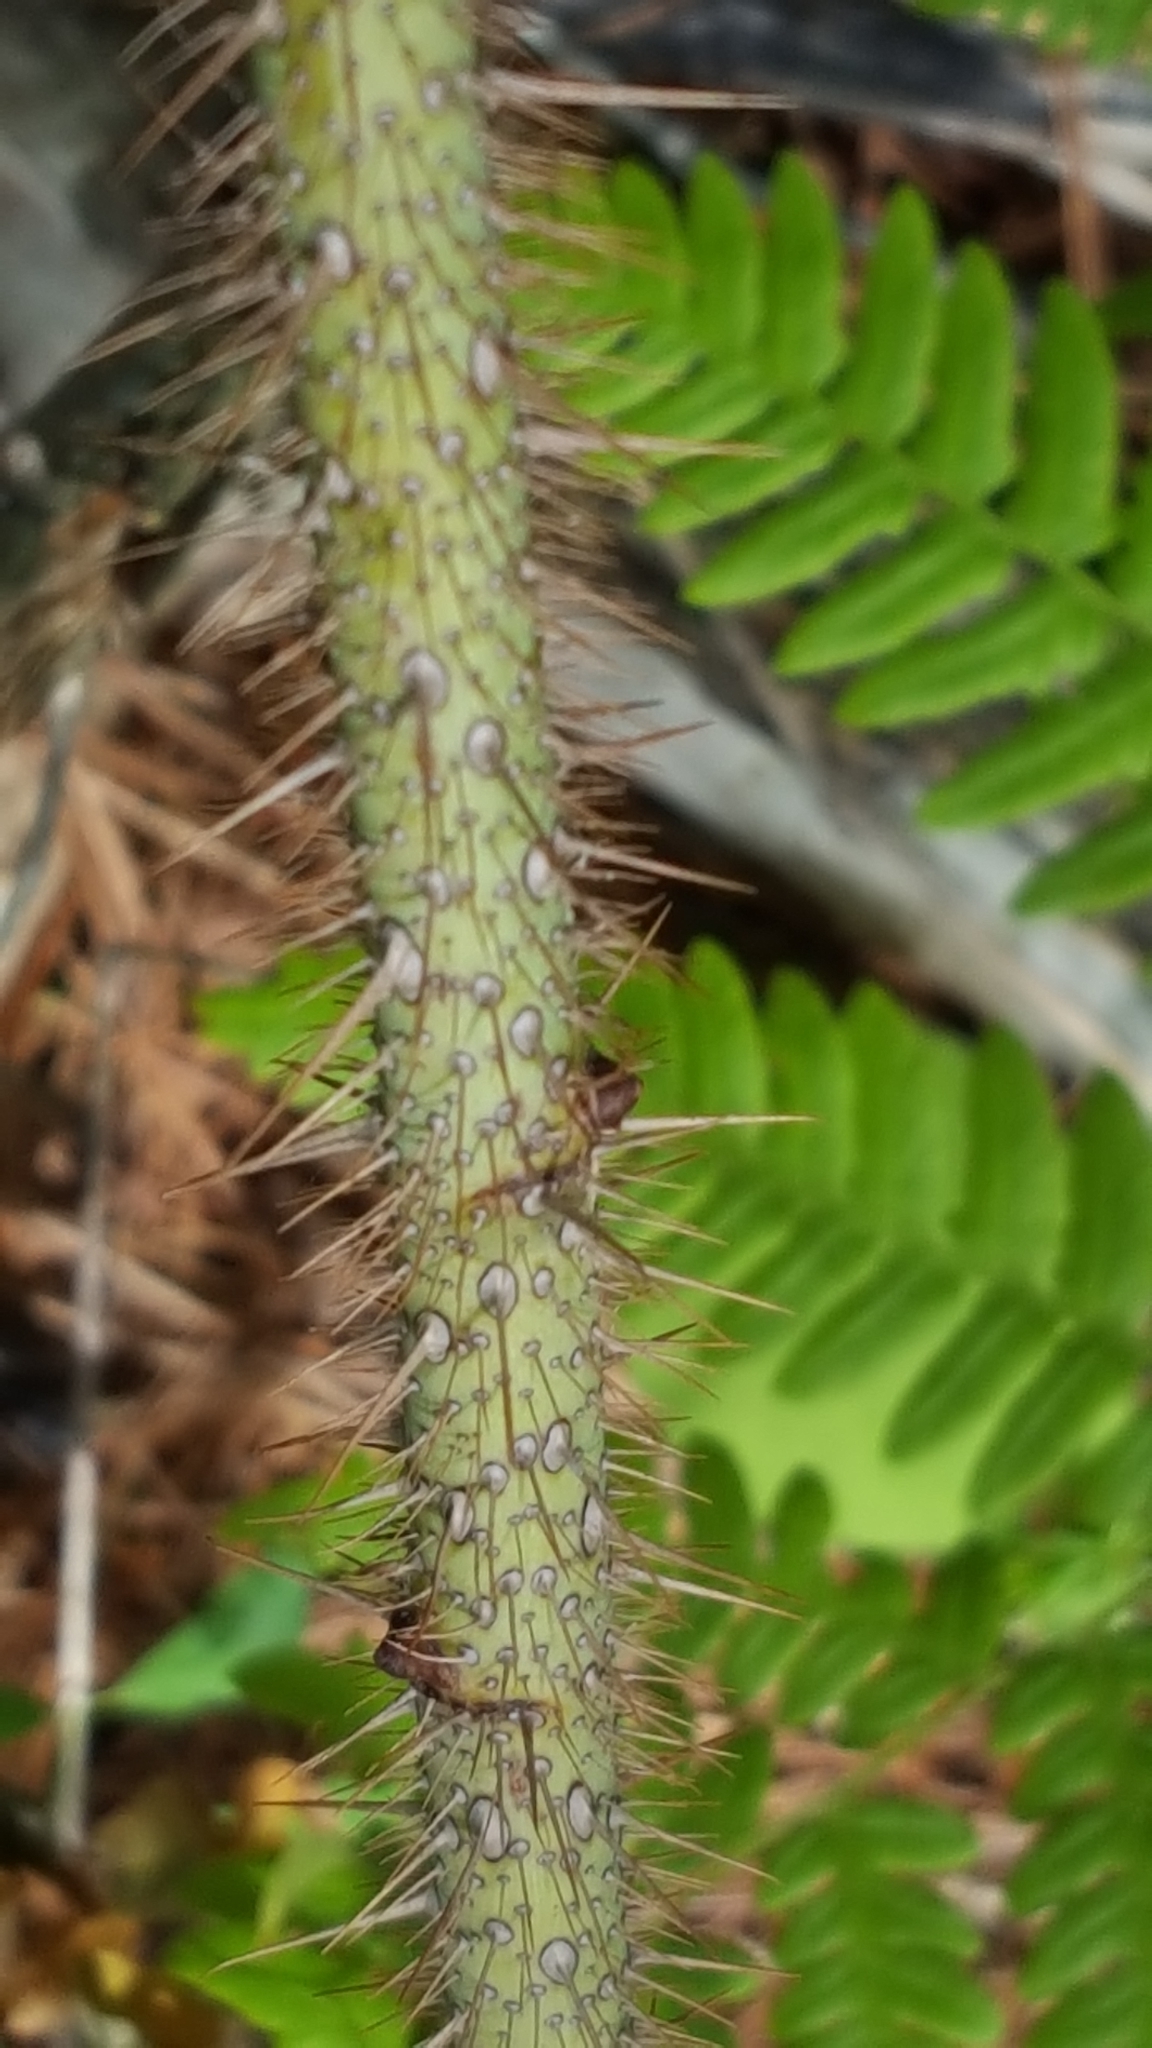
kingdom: Plantae
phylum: Tracheophyta
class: Magnoliopsida
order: Rosales
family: Rosaceae
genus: Rosa
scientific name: Rosa acicularis
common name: Prickly rose
